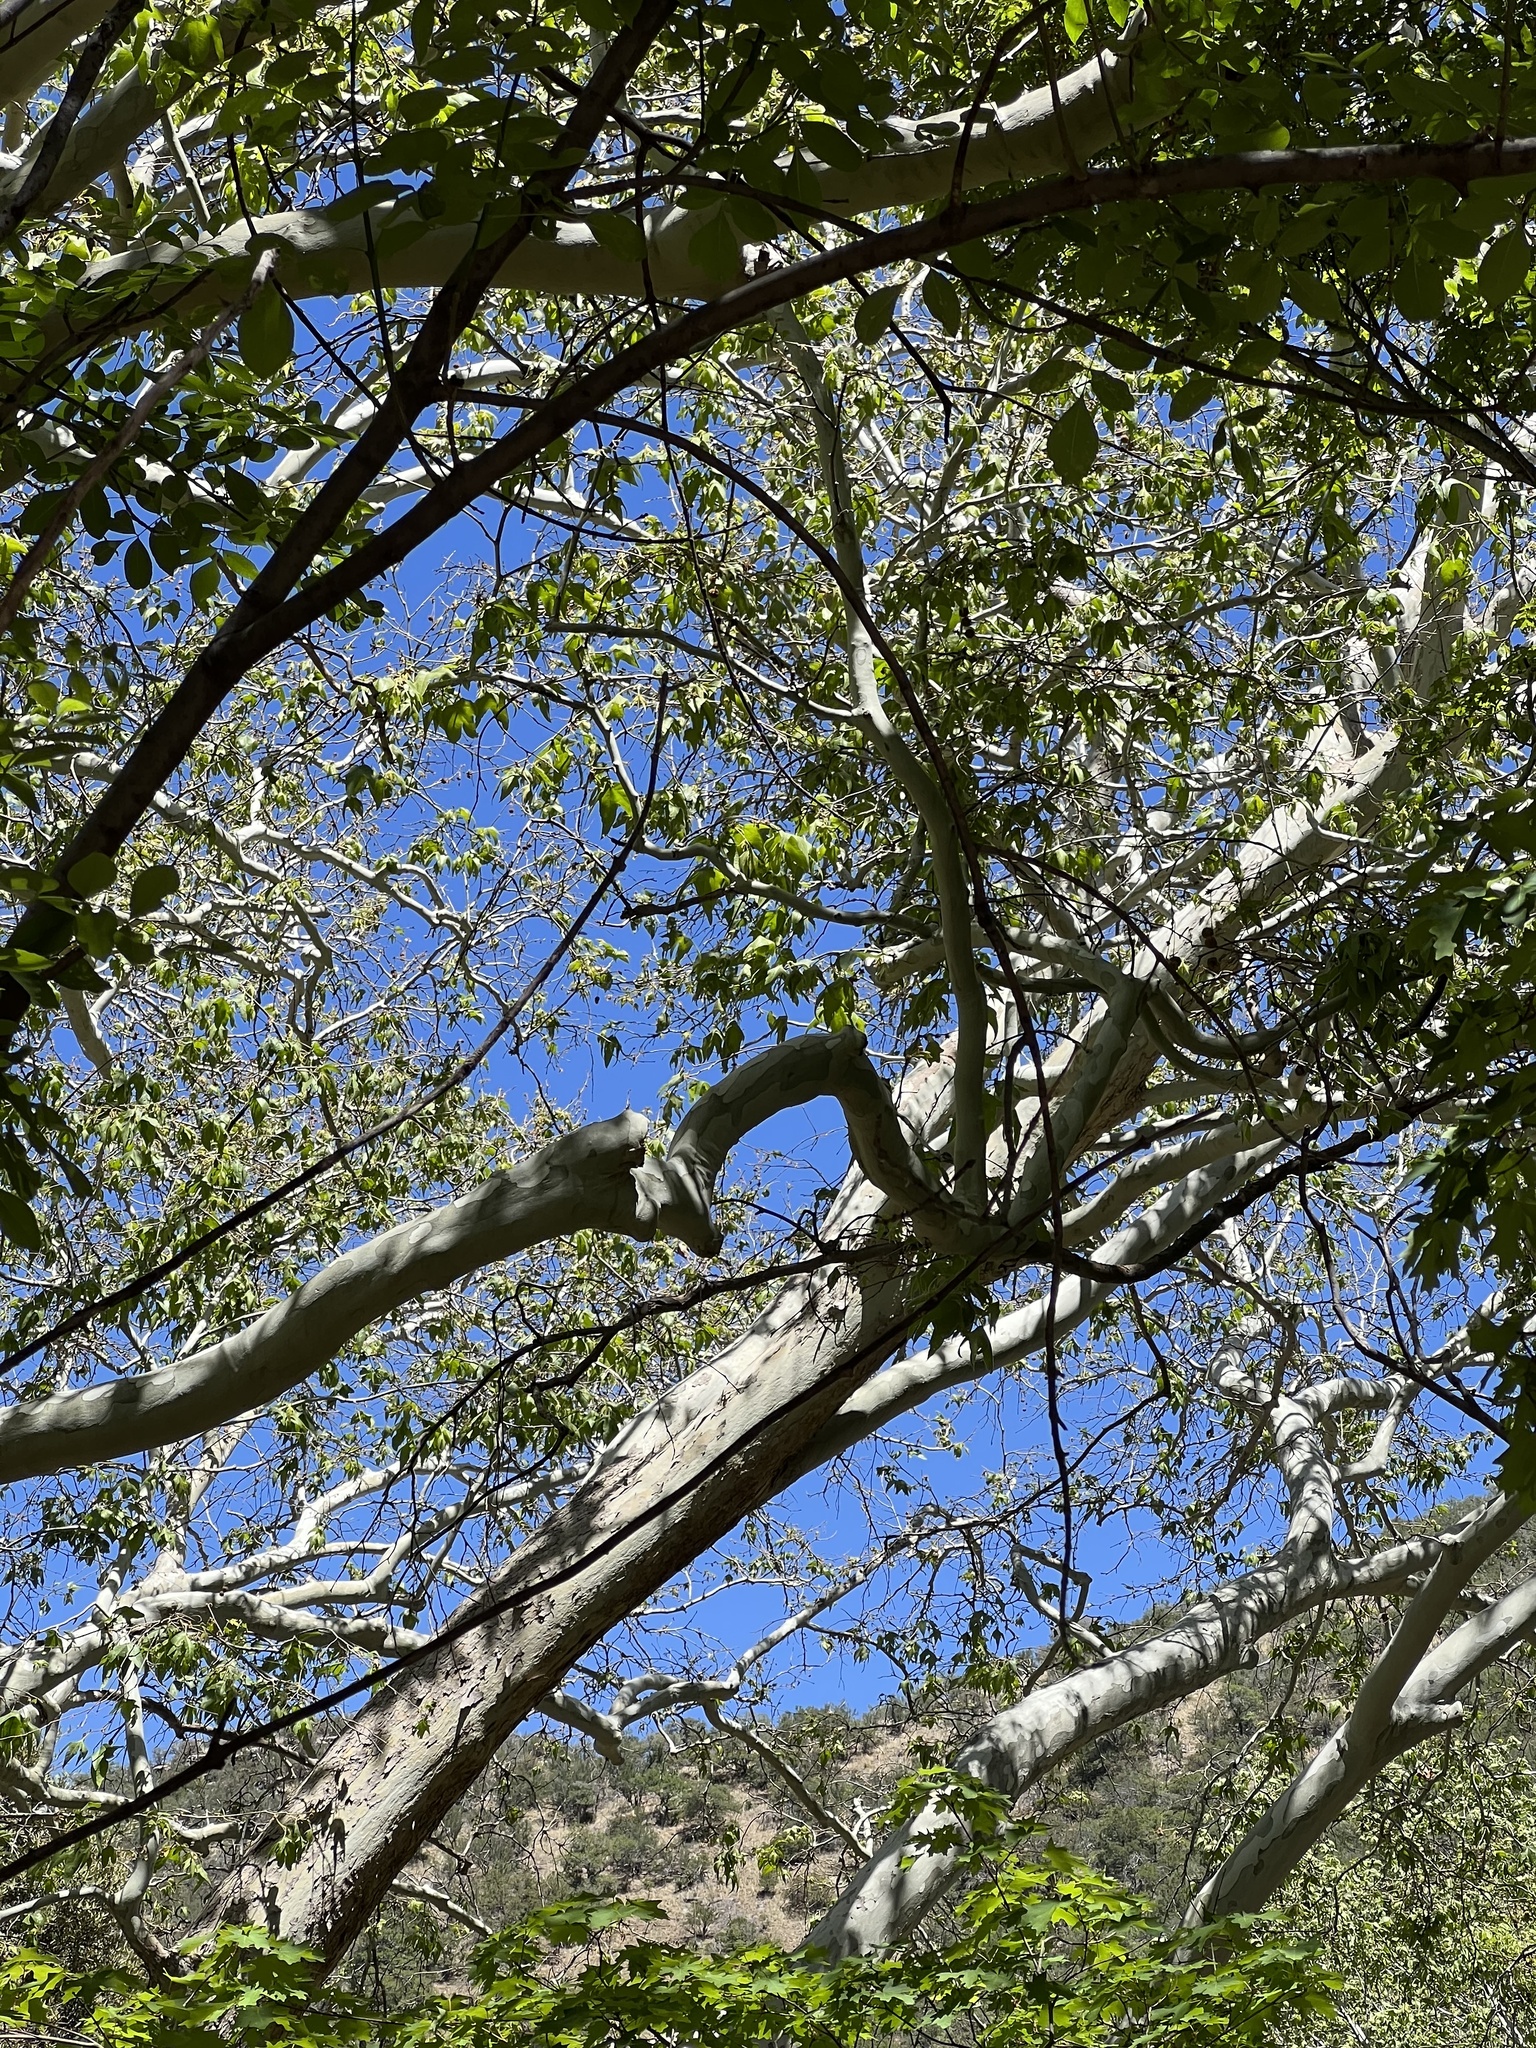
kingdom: Plantae
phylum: Tracheophyta
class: Magnoliopsida
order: Proteales
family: Platanaceae
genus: Platanus
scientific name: Platanus wrightii
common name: Arizona sycamore
